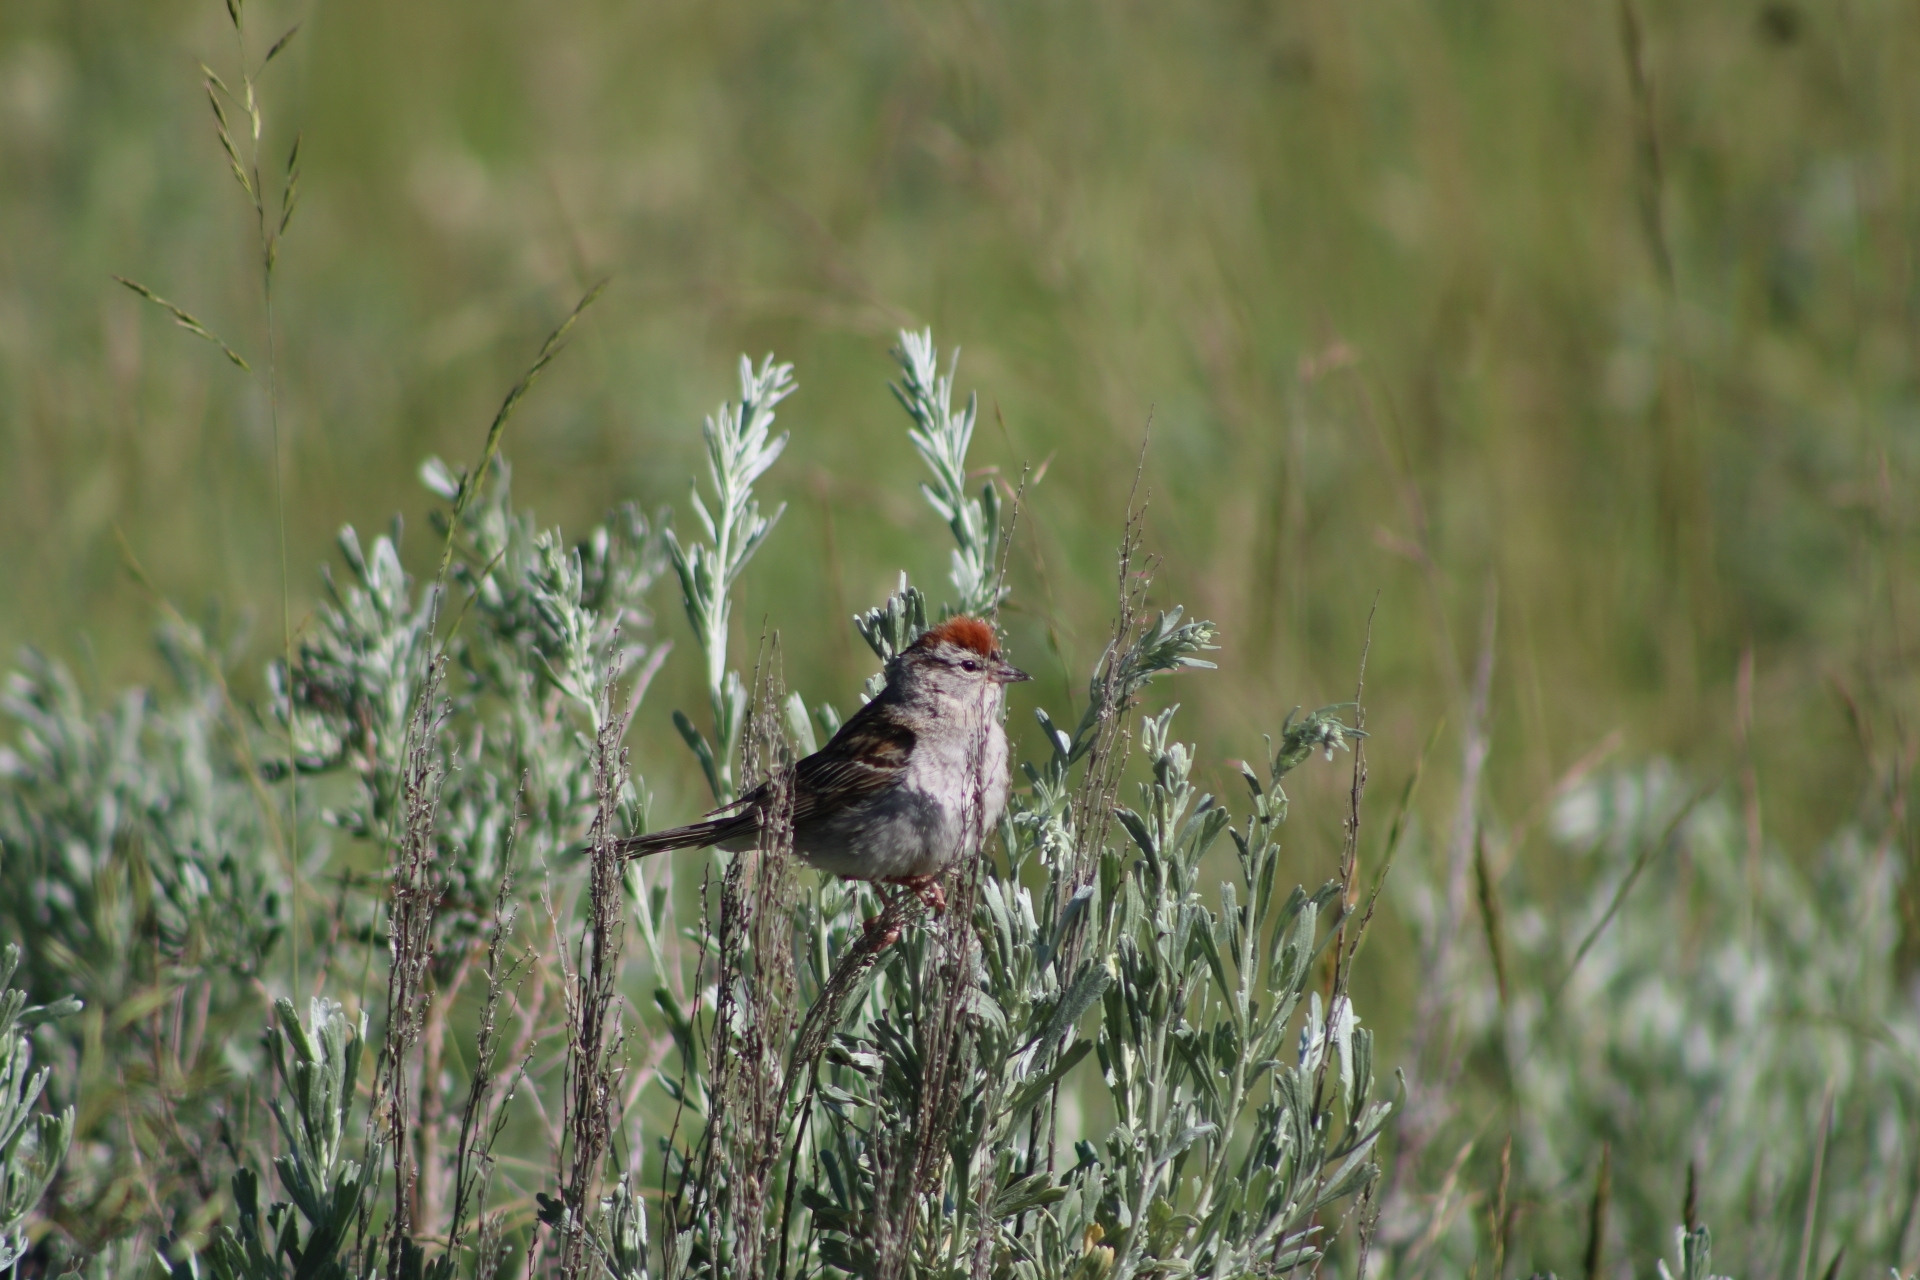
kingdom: Animalia
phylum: Chordata
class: Aves
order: Passeriformes
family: Passerellidae
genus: Spizella
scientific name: Spizella passerina
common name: Chipping sparrow
